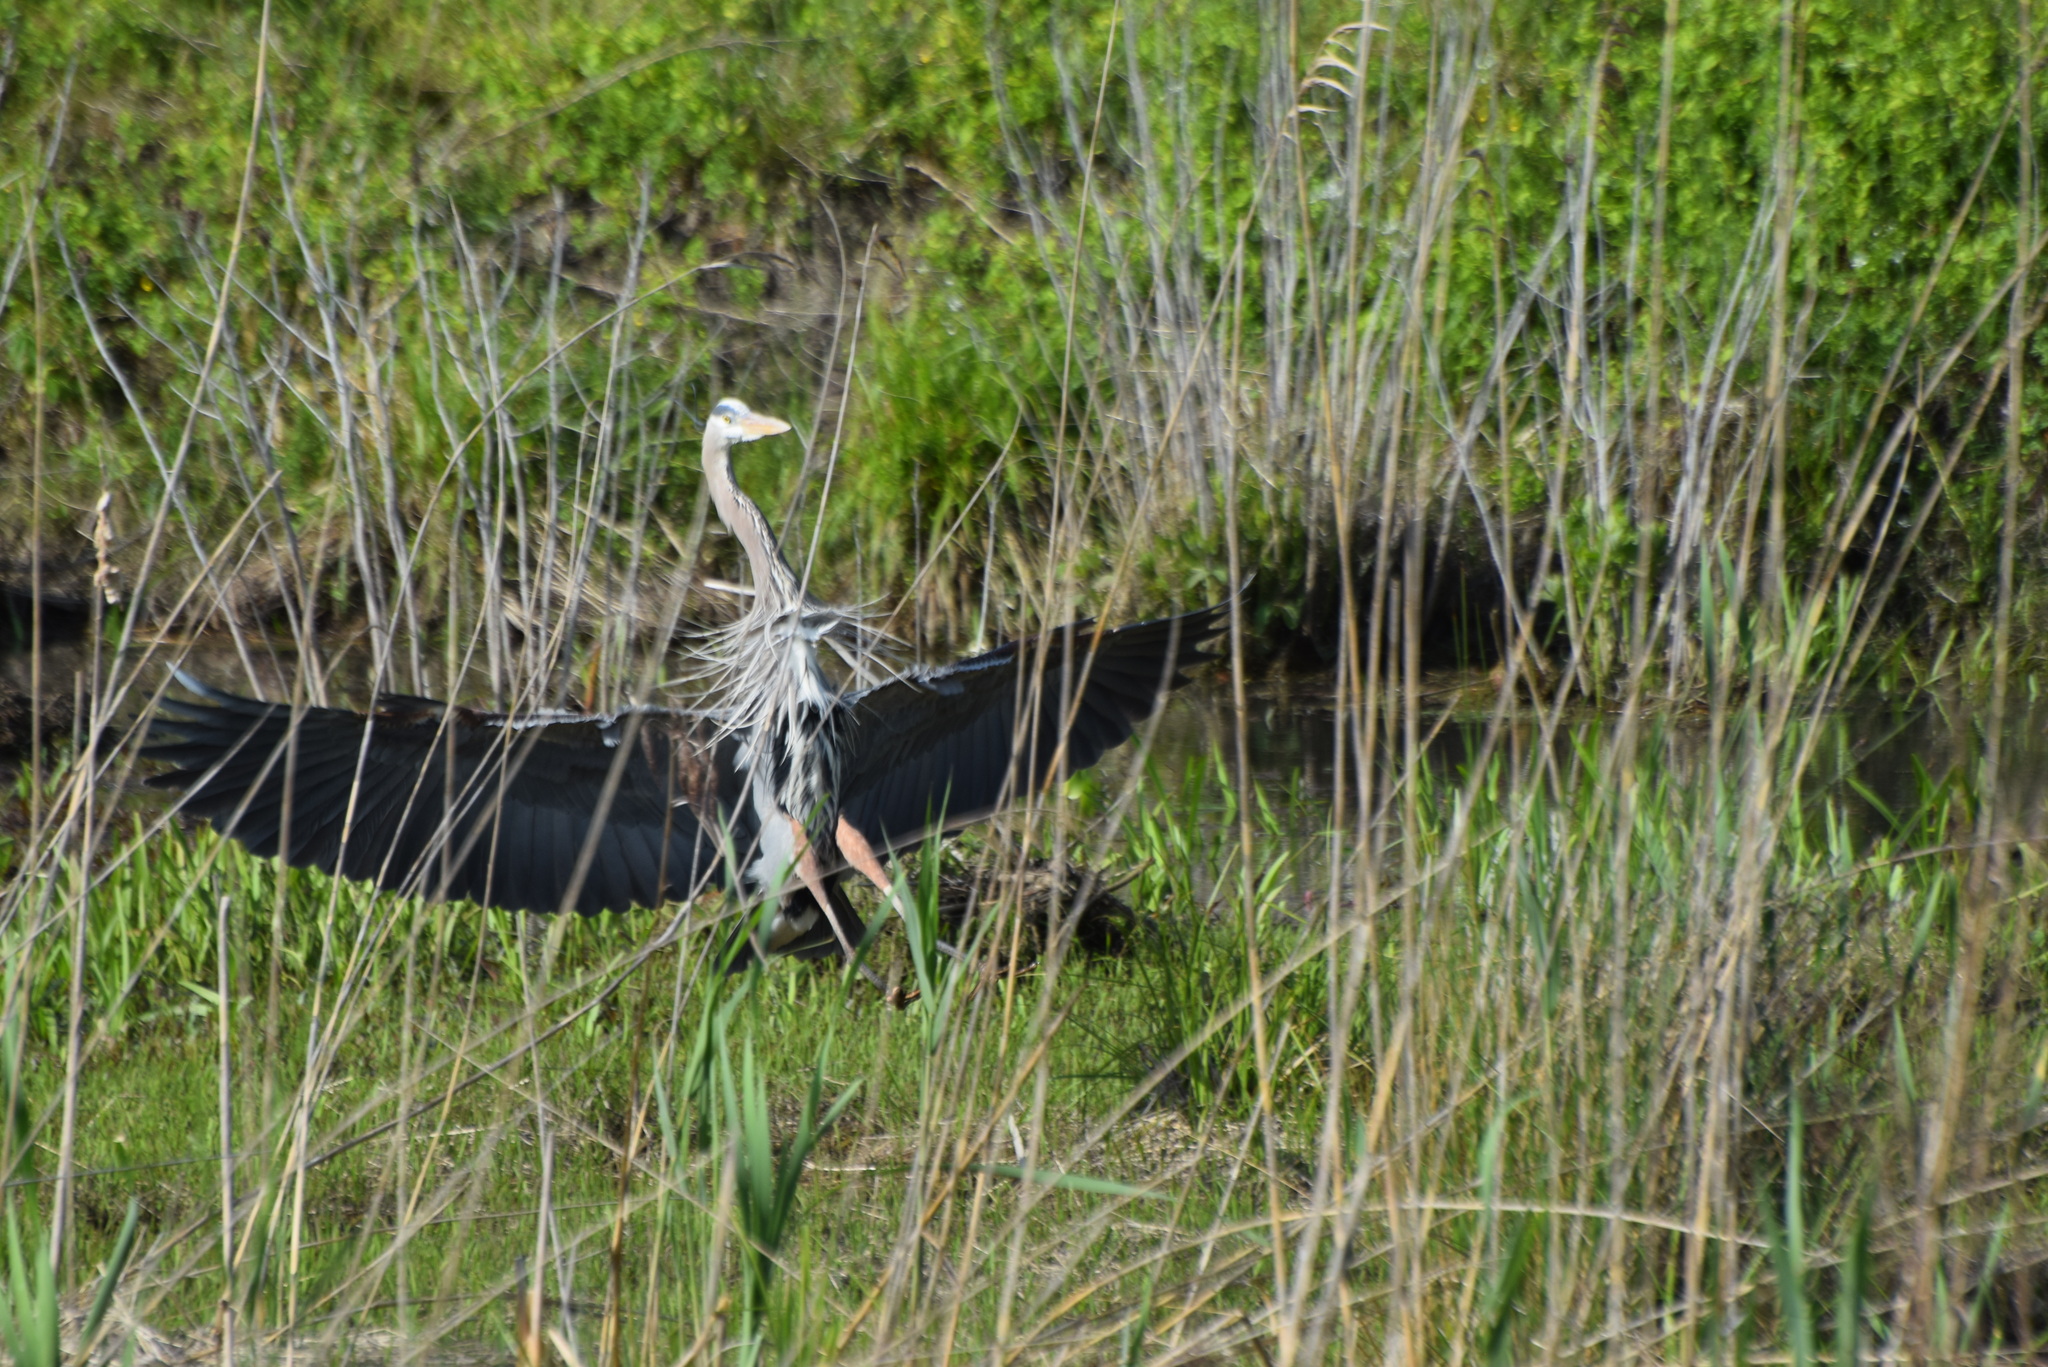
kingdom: Animalia
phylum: Chordata
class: Aves
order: Pelecaniformes
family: Ardeidae
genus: Ardea
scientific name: Ardea herodias
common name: Great blue heron
